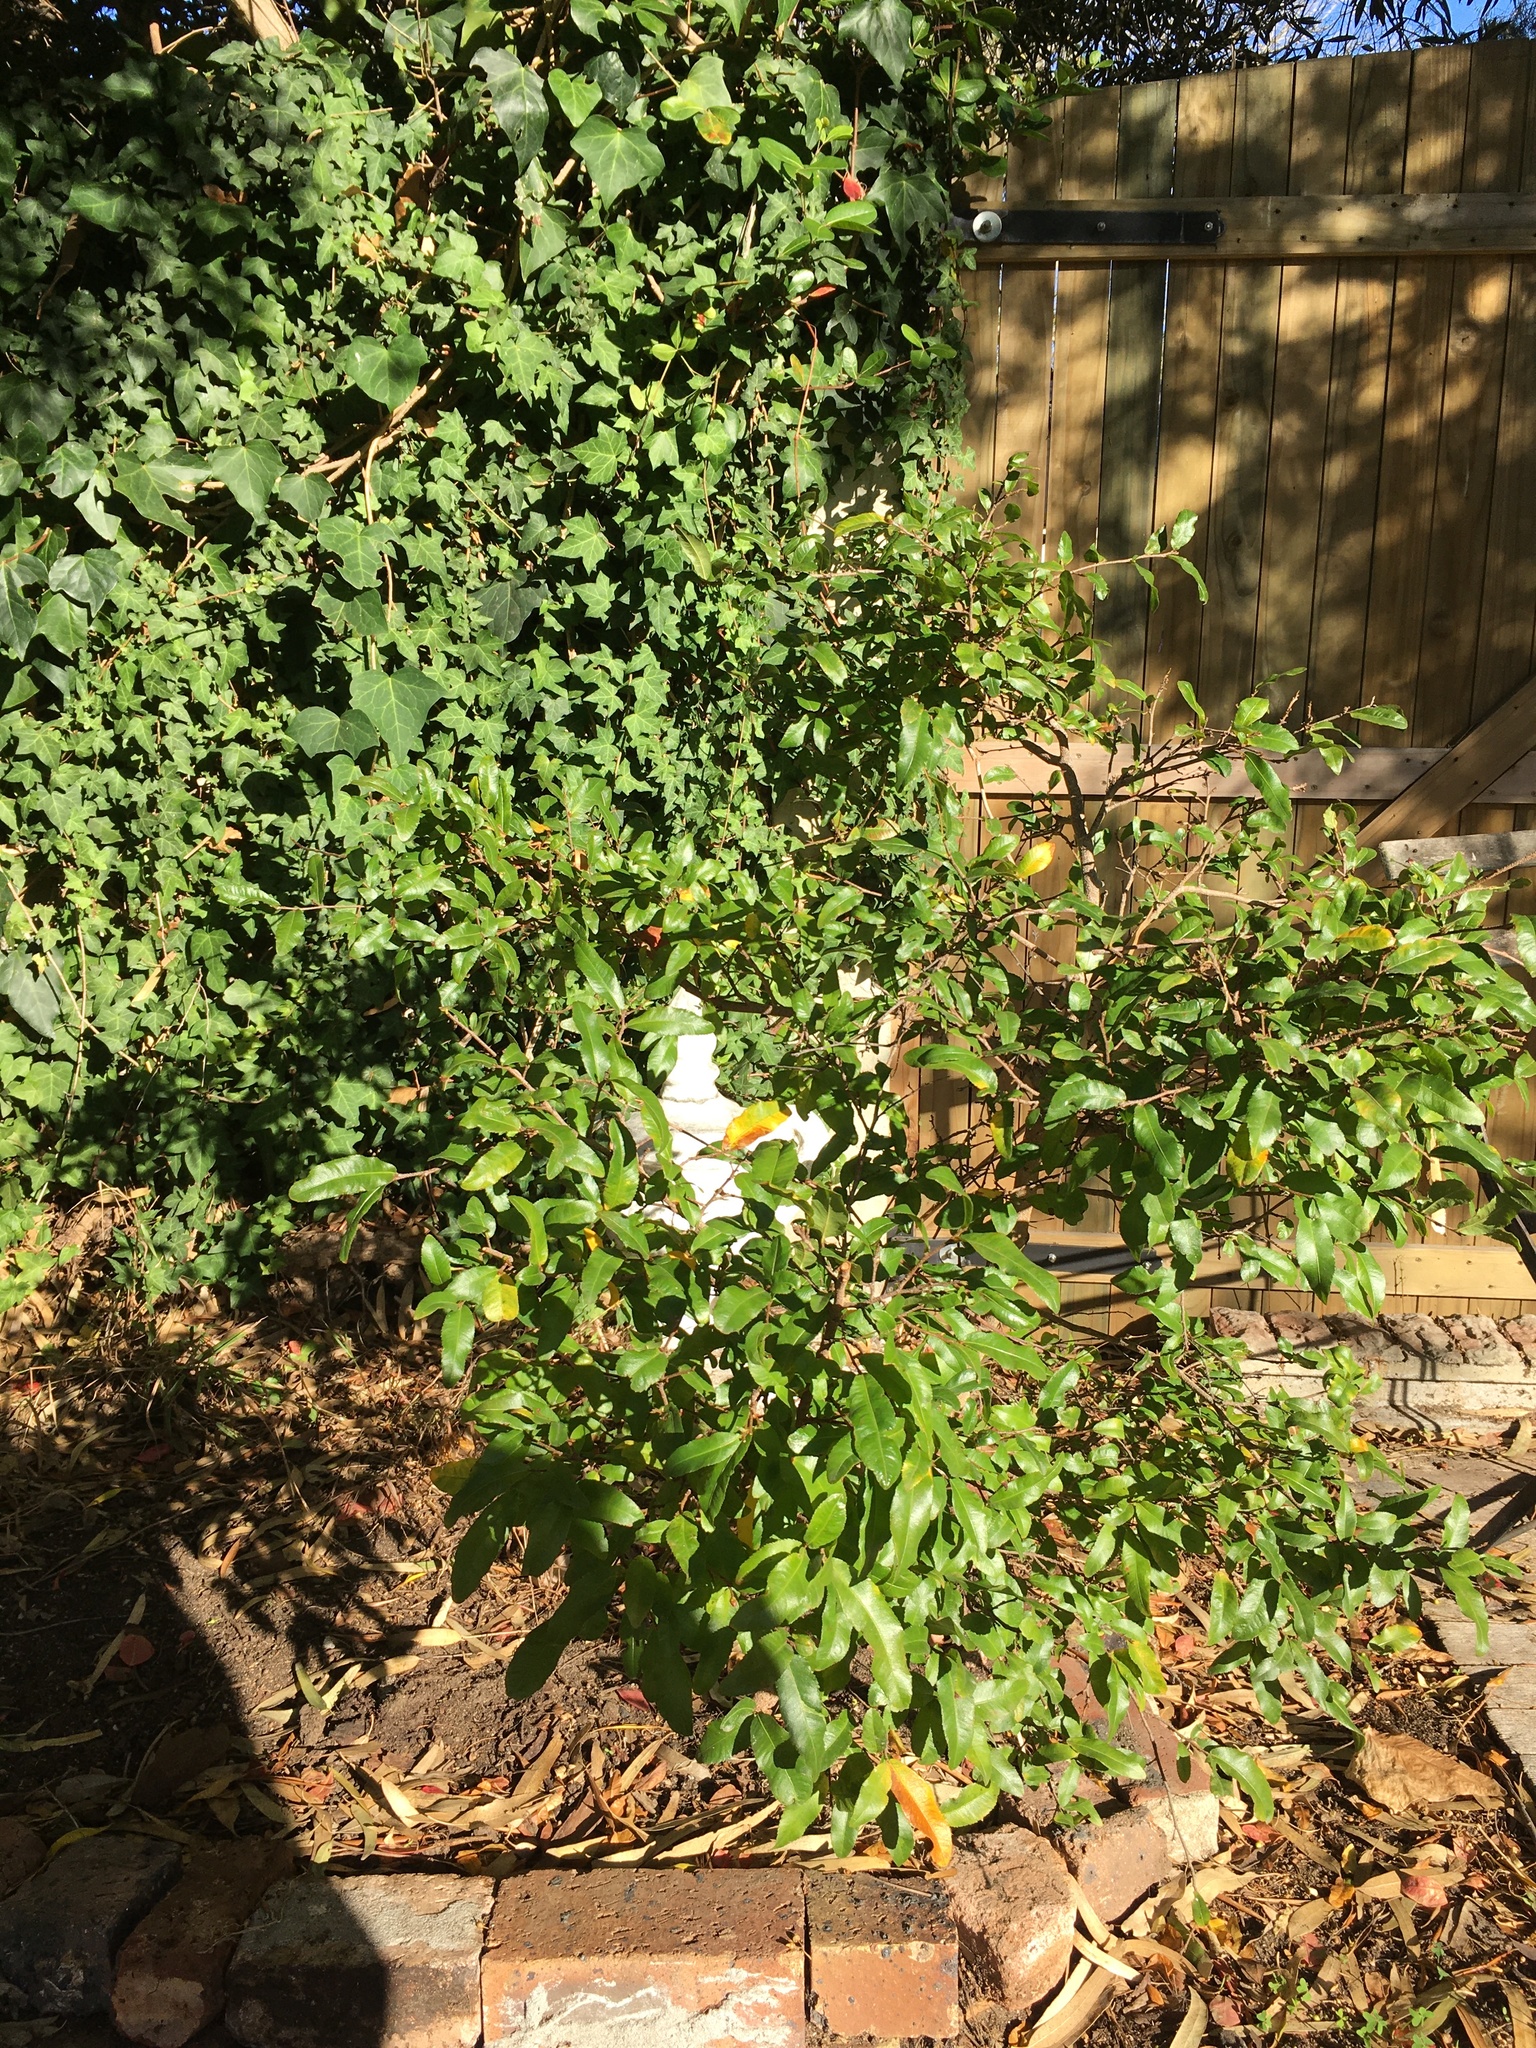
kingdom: Plantae
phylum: Tracheophyta
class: Magnoliopsida
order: Malpighiales
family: Ochnaceae
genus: Ochna
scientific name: Ochna serrulata
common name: Mickey mouse plant
